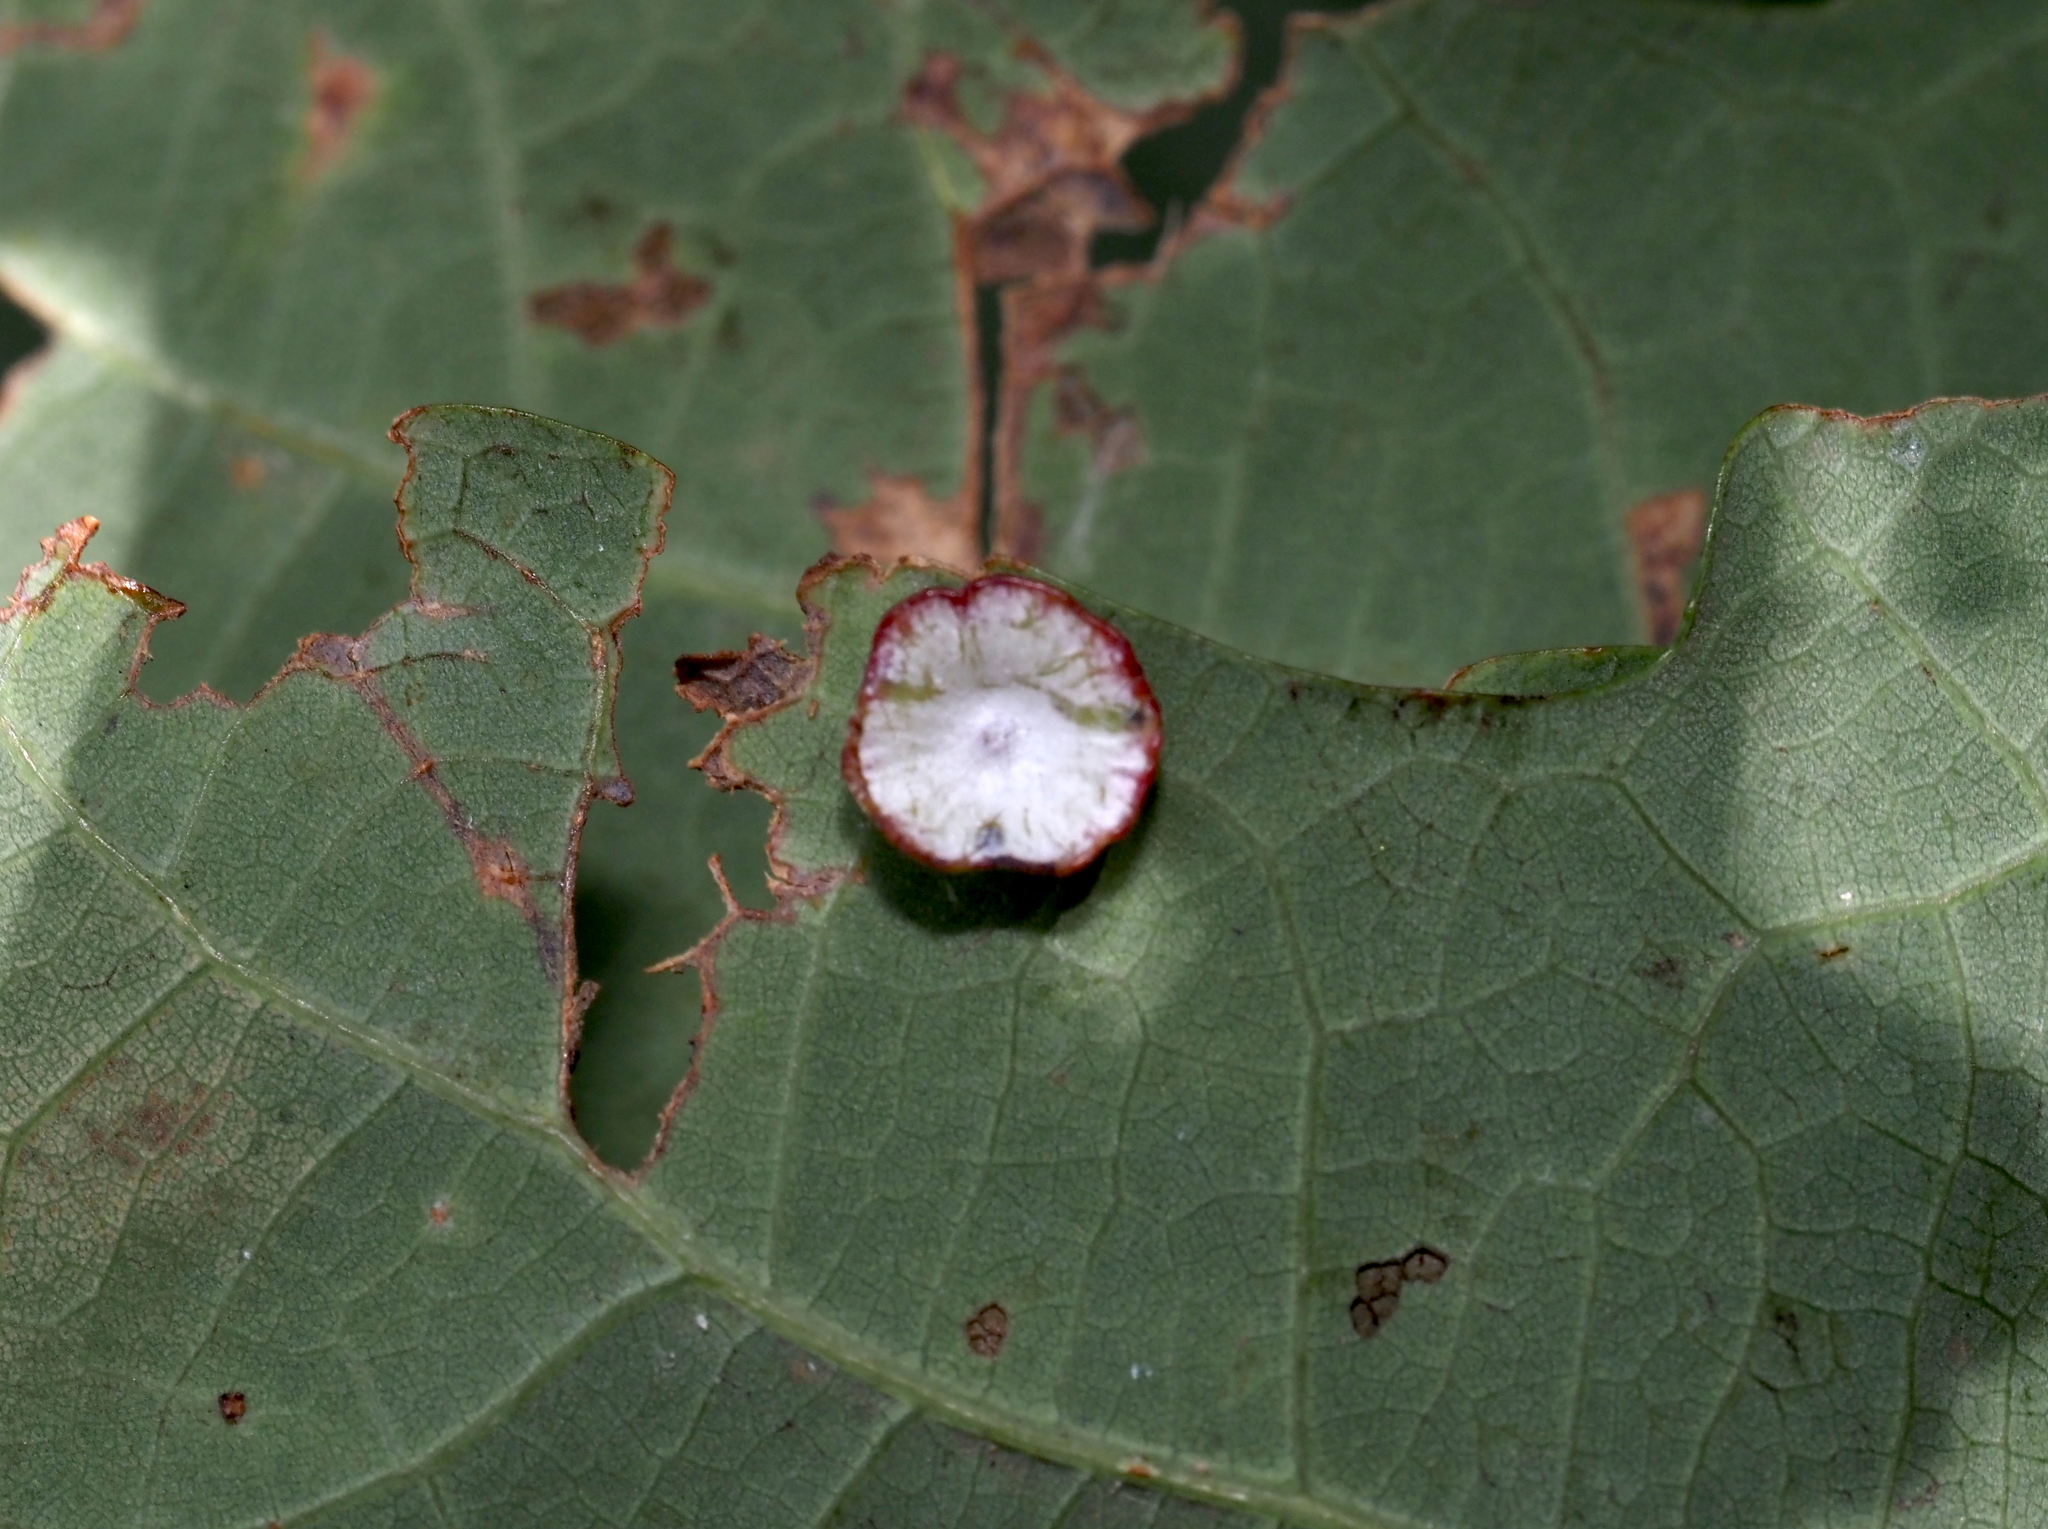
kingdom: Animalia
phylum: Arthropoda
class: Insecta
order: Hymenoptera
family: Cynipidae
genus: Phylloteras
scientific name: Phylloteras poculum
